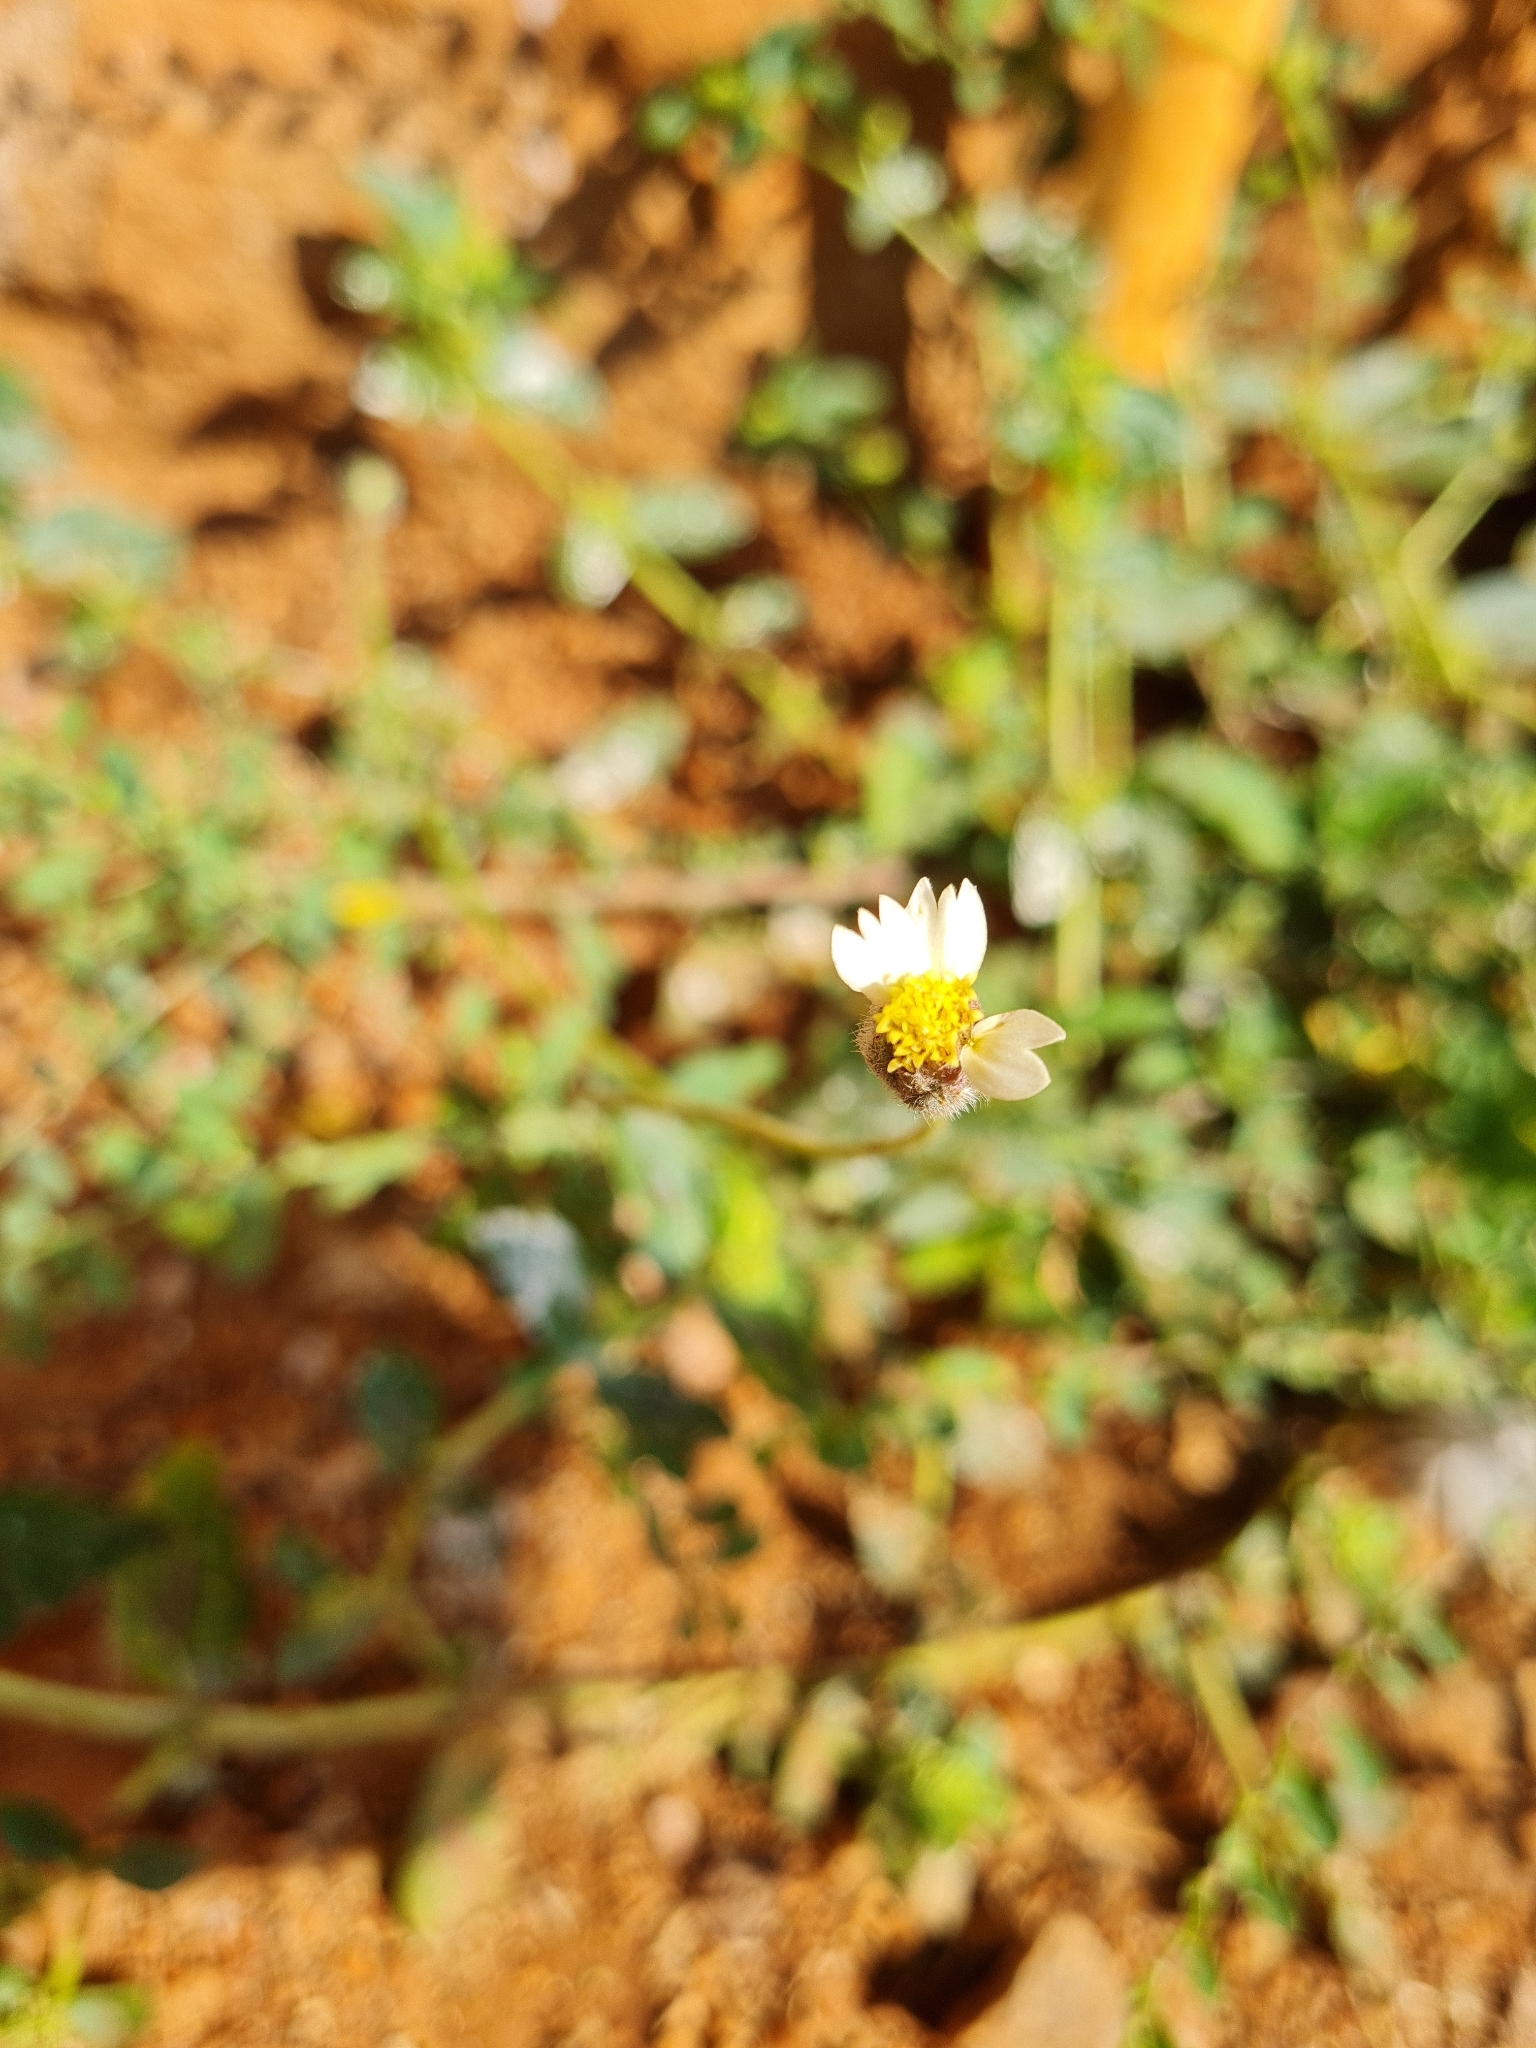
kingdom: Plantae
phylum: Tracheophyta
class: Magnoliopsida
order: Asterales
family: Asteraceae
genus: Tridax
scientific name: Tridax procumbens
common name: Coatbuttons
